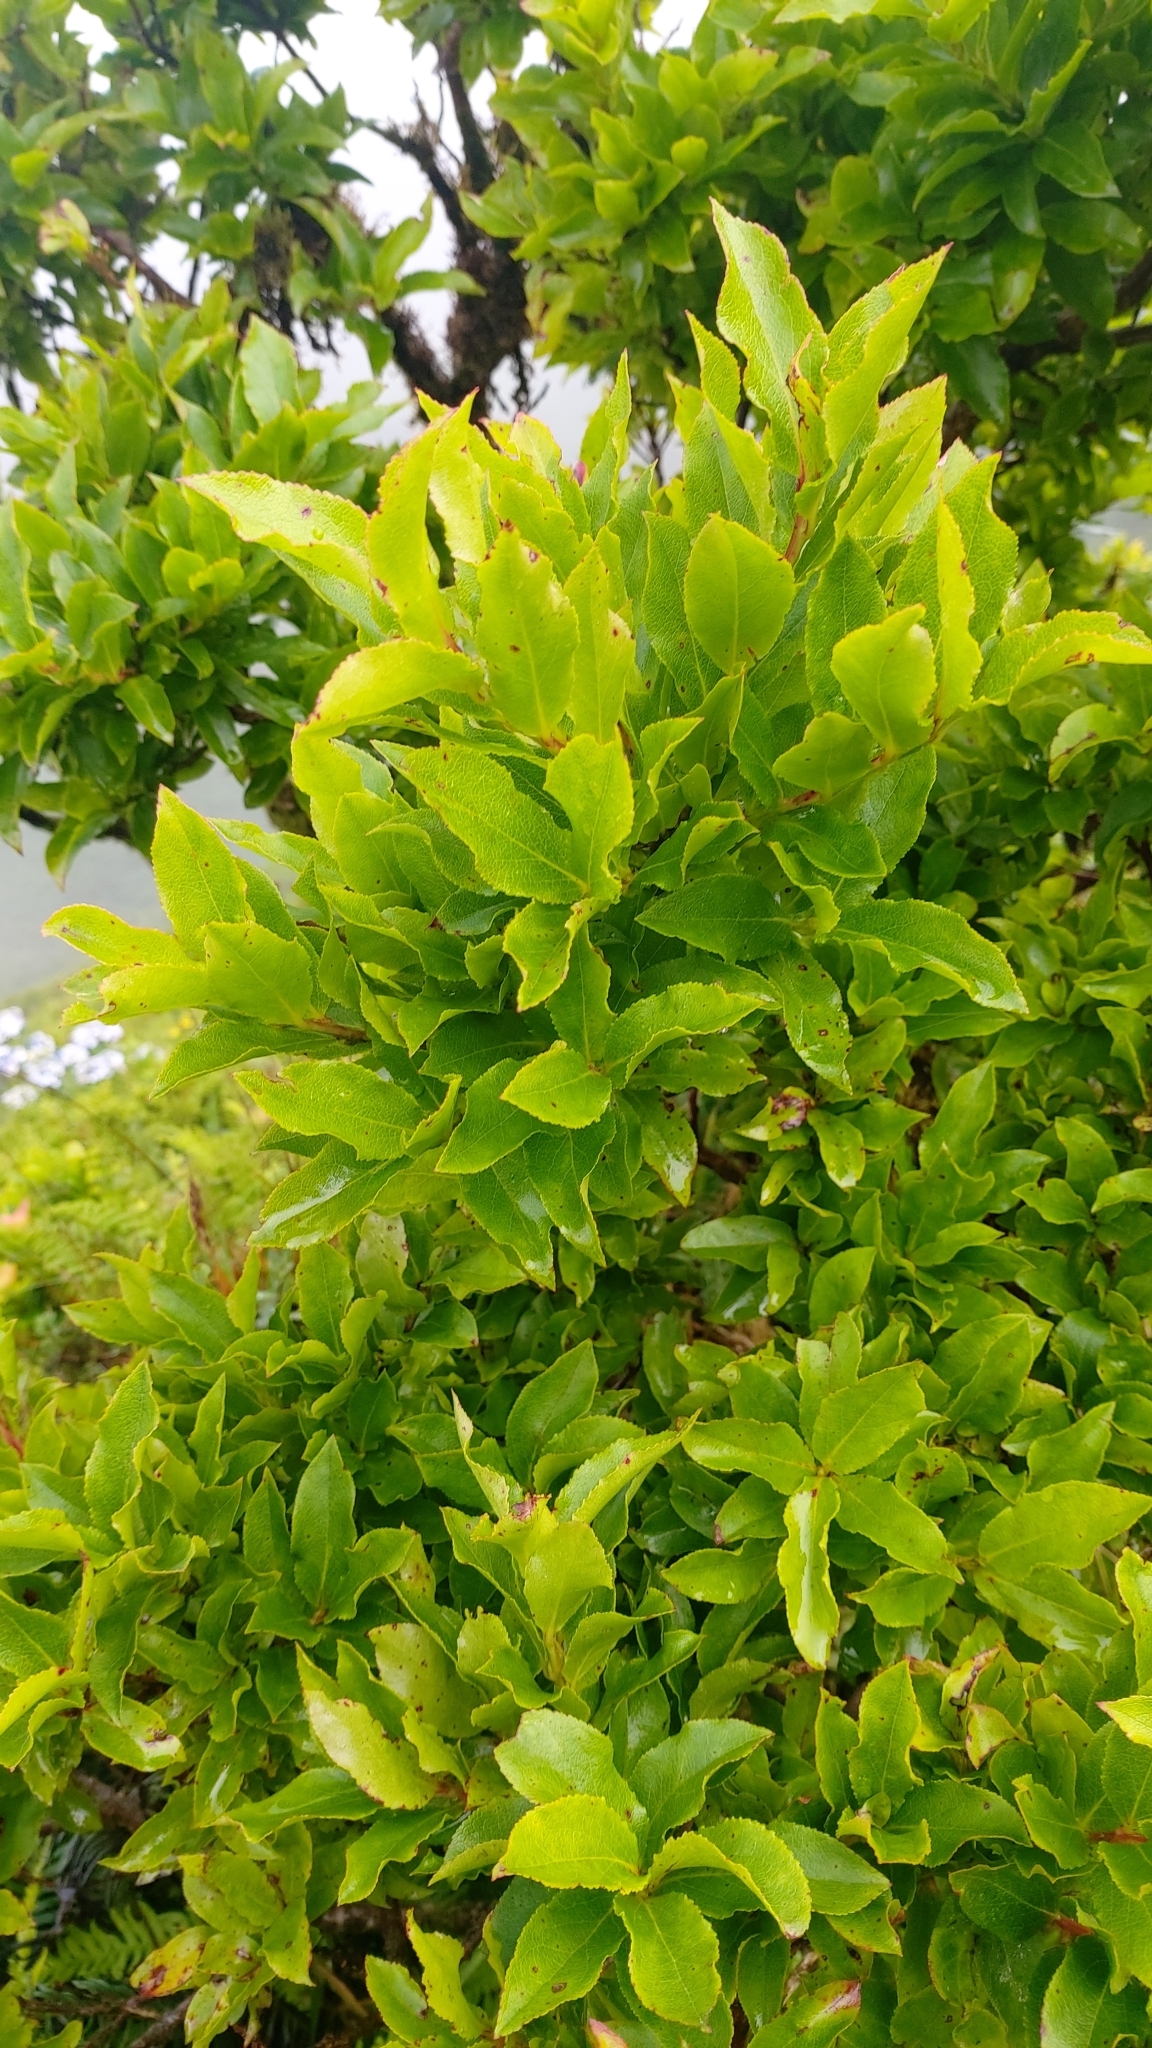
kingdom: Plantae
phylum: Tracheophyta
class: Magnoliopsida
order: Ericales
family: Ericaceae
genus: Vaccinium
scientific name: Vaccinium cylindraceum
